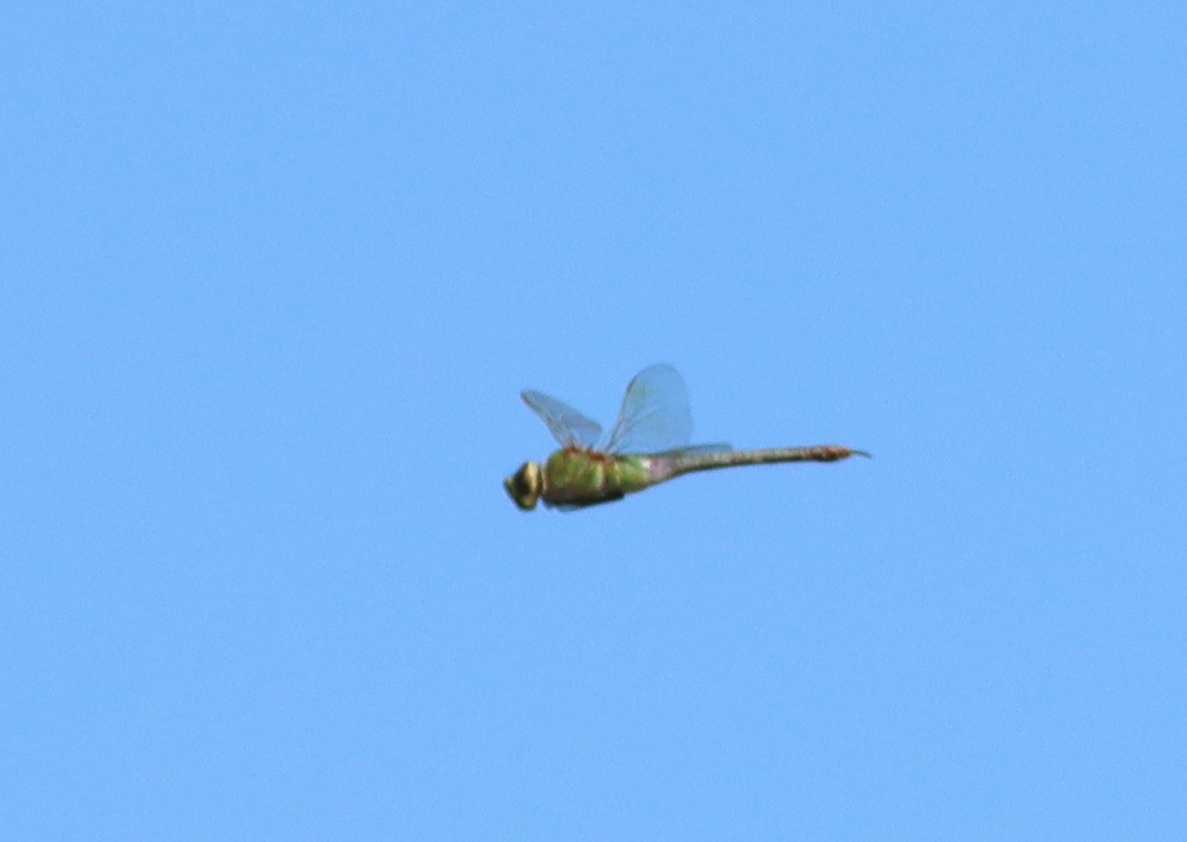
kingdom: Animalia
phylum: Arthropoda
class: Insecta
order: Odonata
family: Aeshnidae
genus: Anax
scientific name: Anax junius
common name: Common green darner
